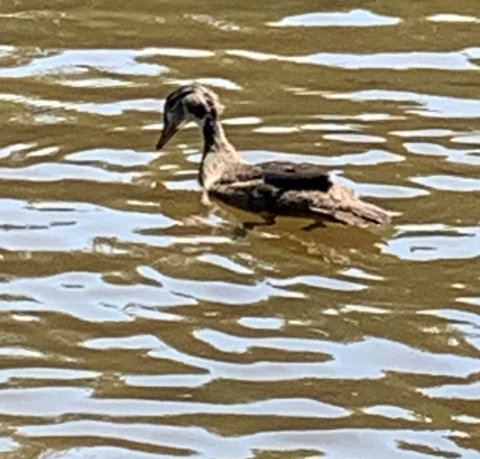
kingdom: Animalia
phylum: Chordata
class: Aves
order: Anseriformes
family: Anatidae
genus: Aix
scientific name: Aix sponsa
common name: Wood duck
